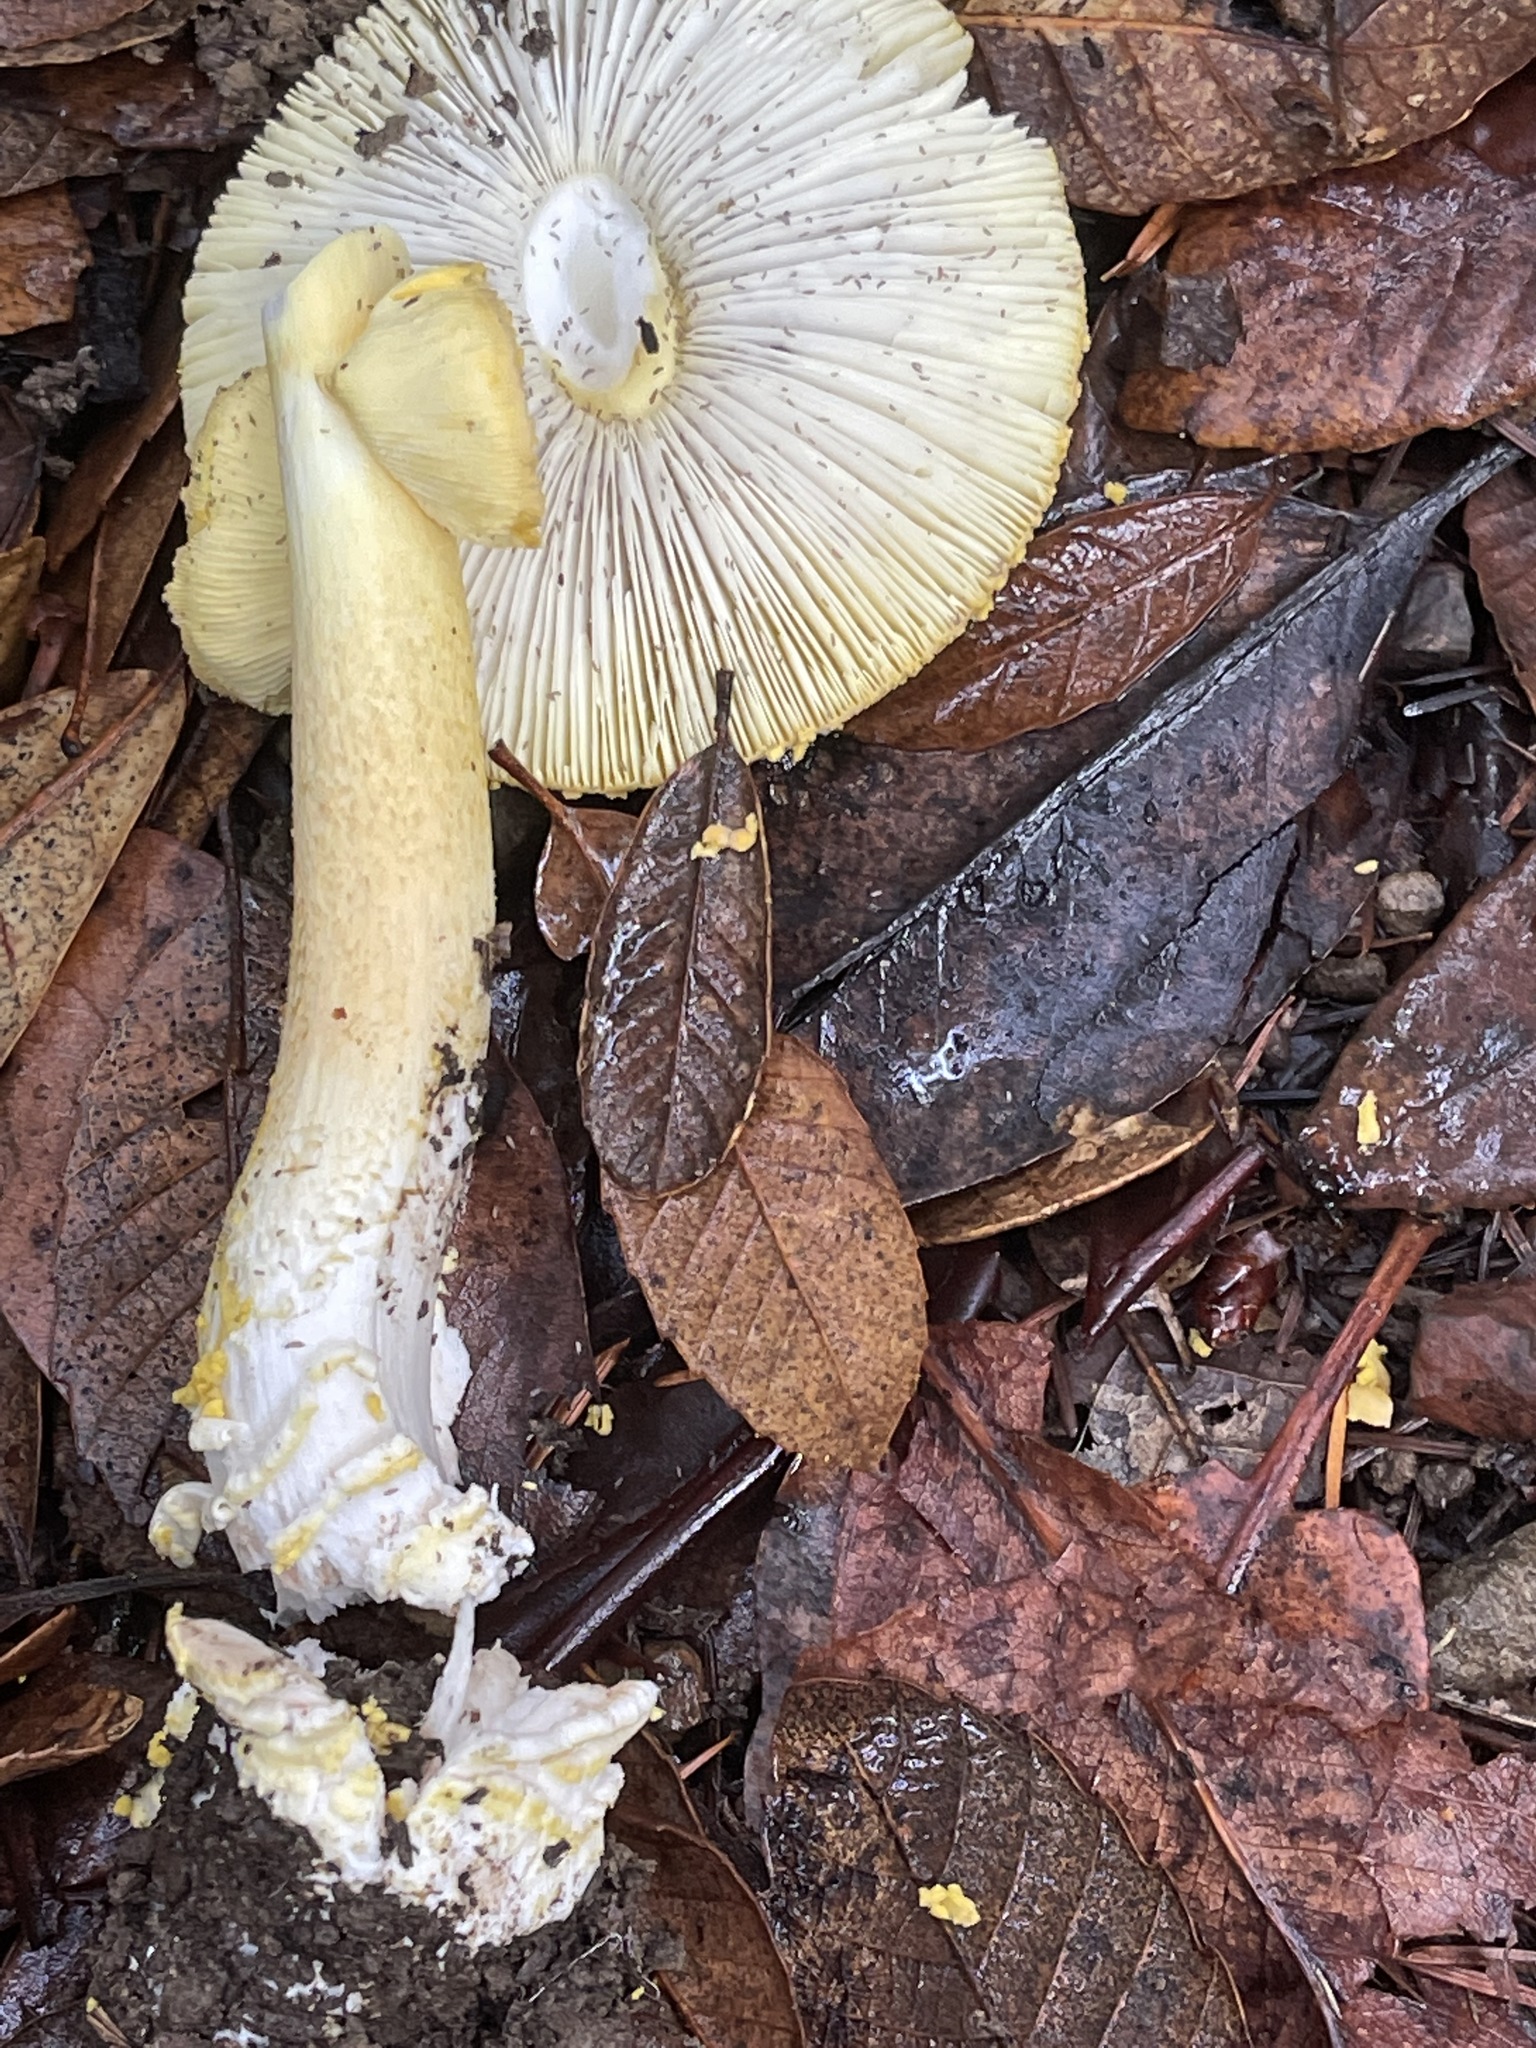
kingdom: Fungi
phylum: Basidiomycota
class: Agaricomycetes
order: Agaricales
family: Amanitaceae
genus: Amanita
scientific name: Amanita augusta
